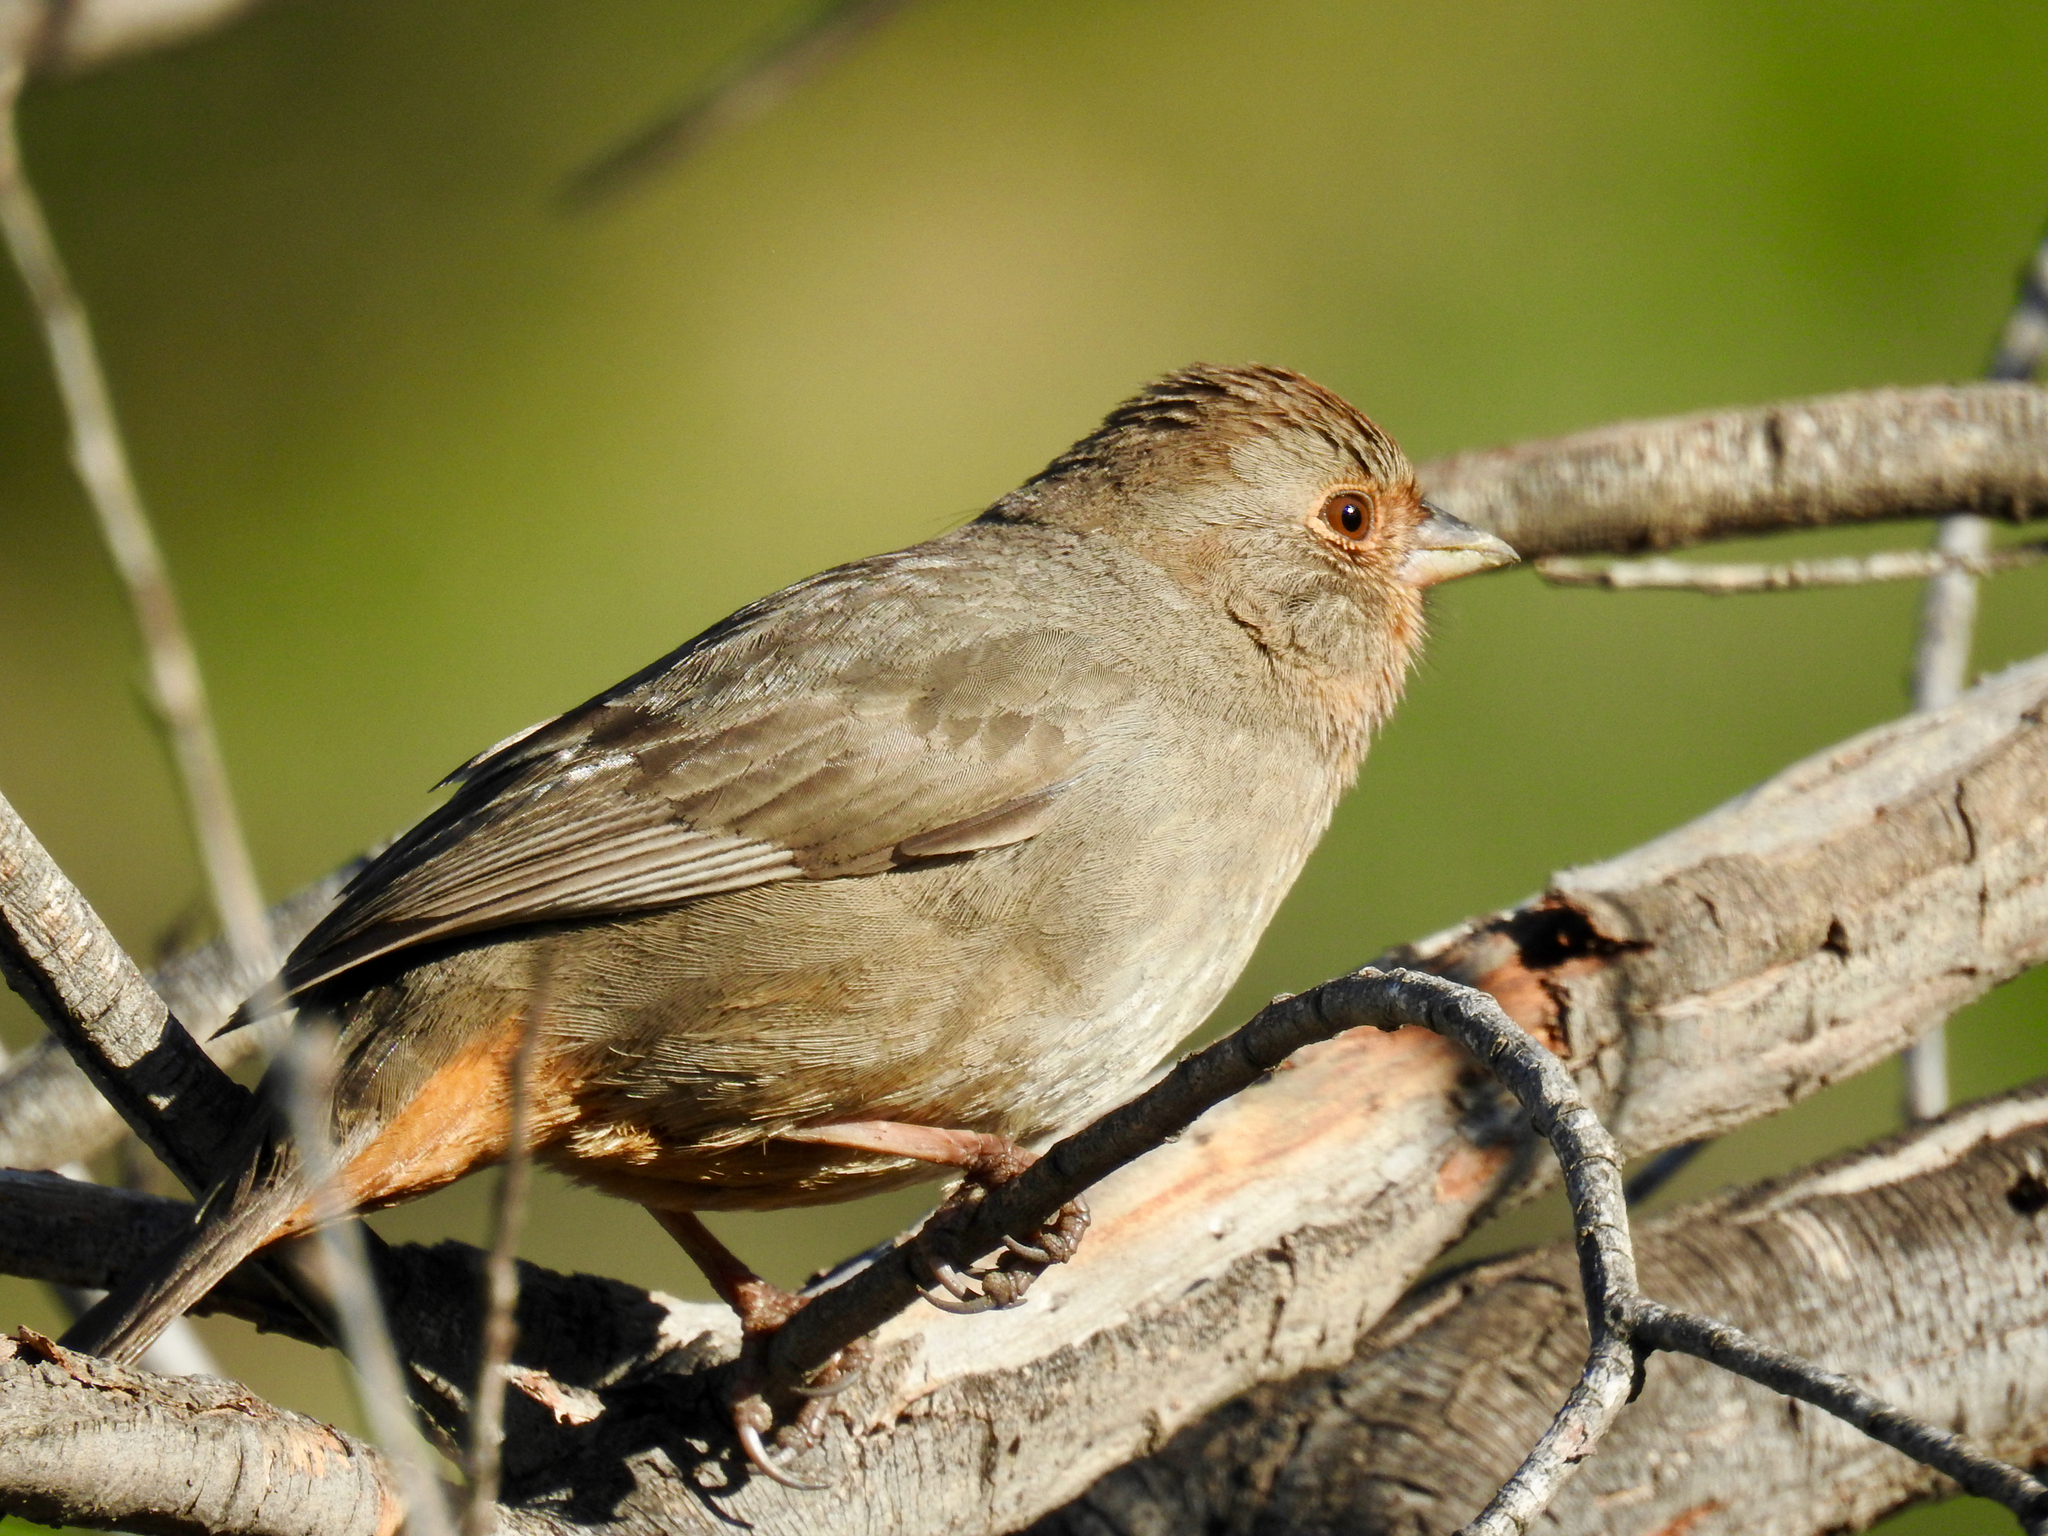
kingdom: Animalia
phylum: Chordata
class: Aves
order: Passeriformes
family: Passerellidae
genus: Melozone
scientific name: Melozone crissalis
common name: California towhee
